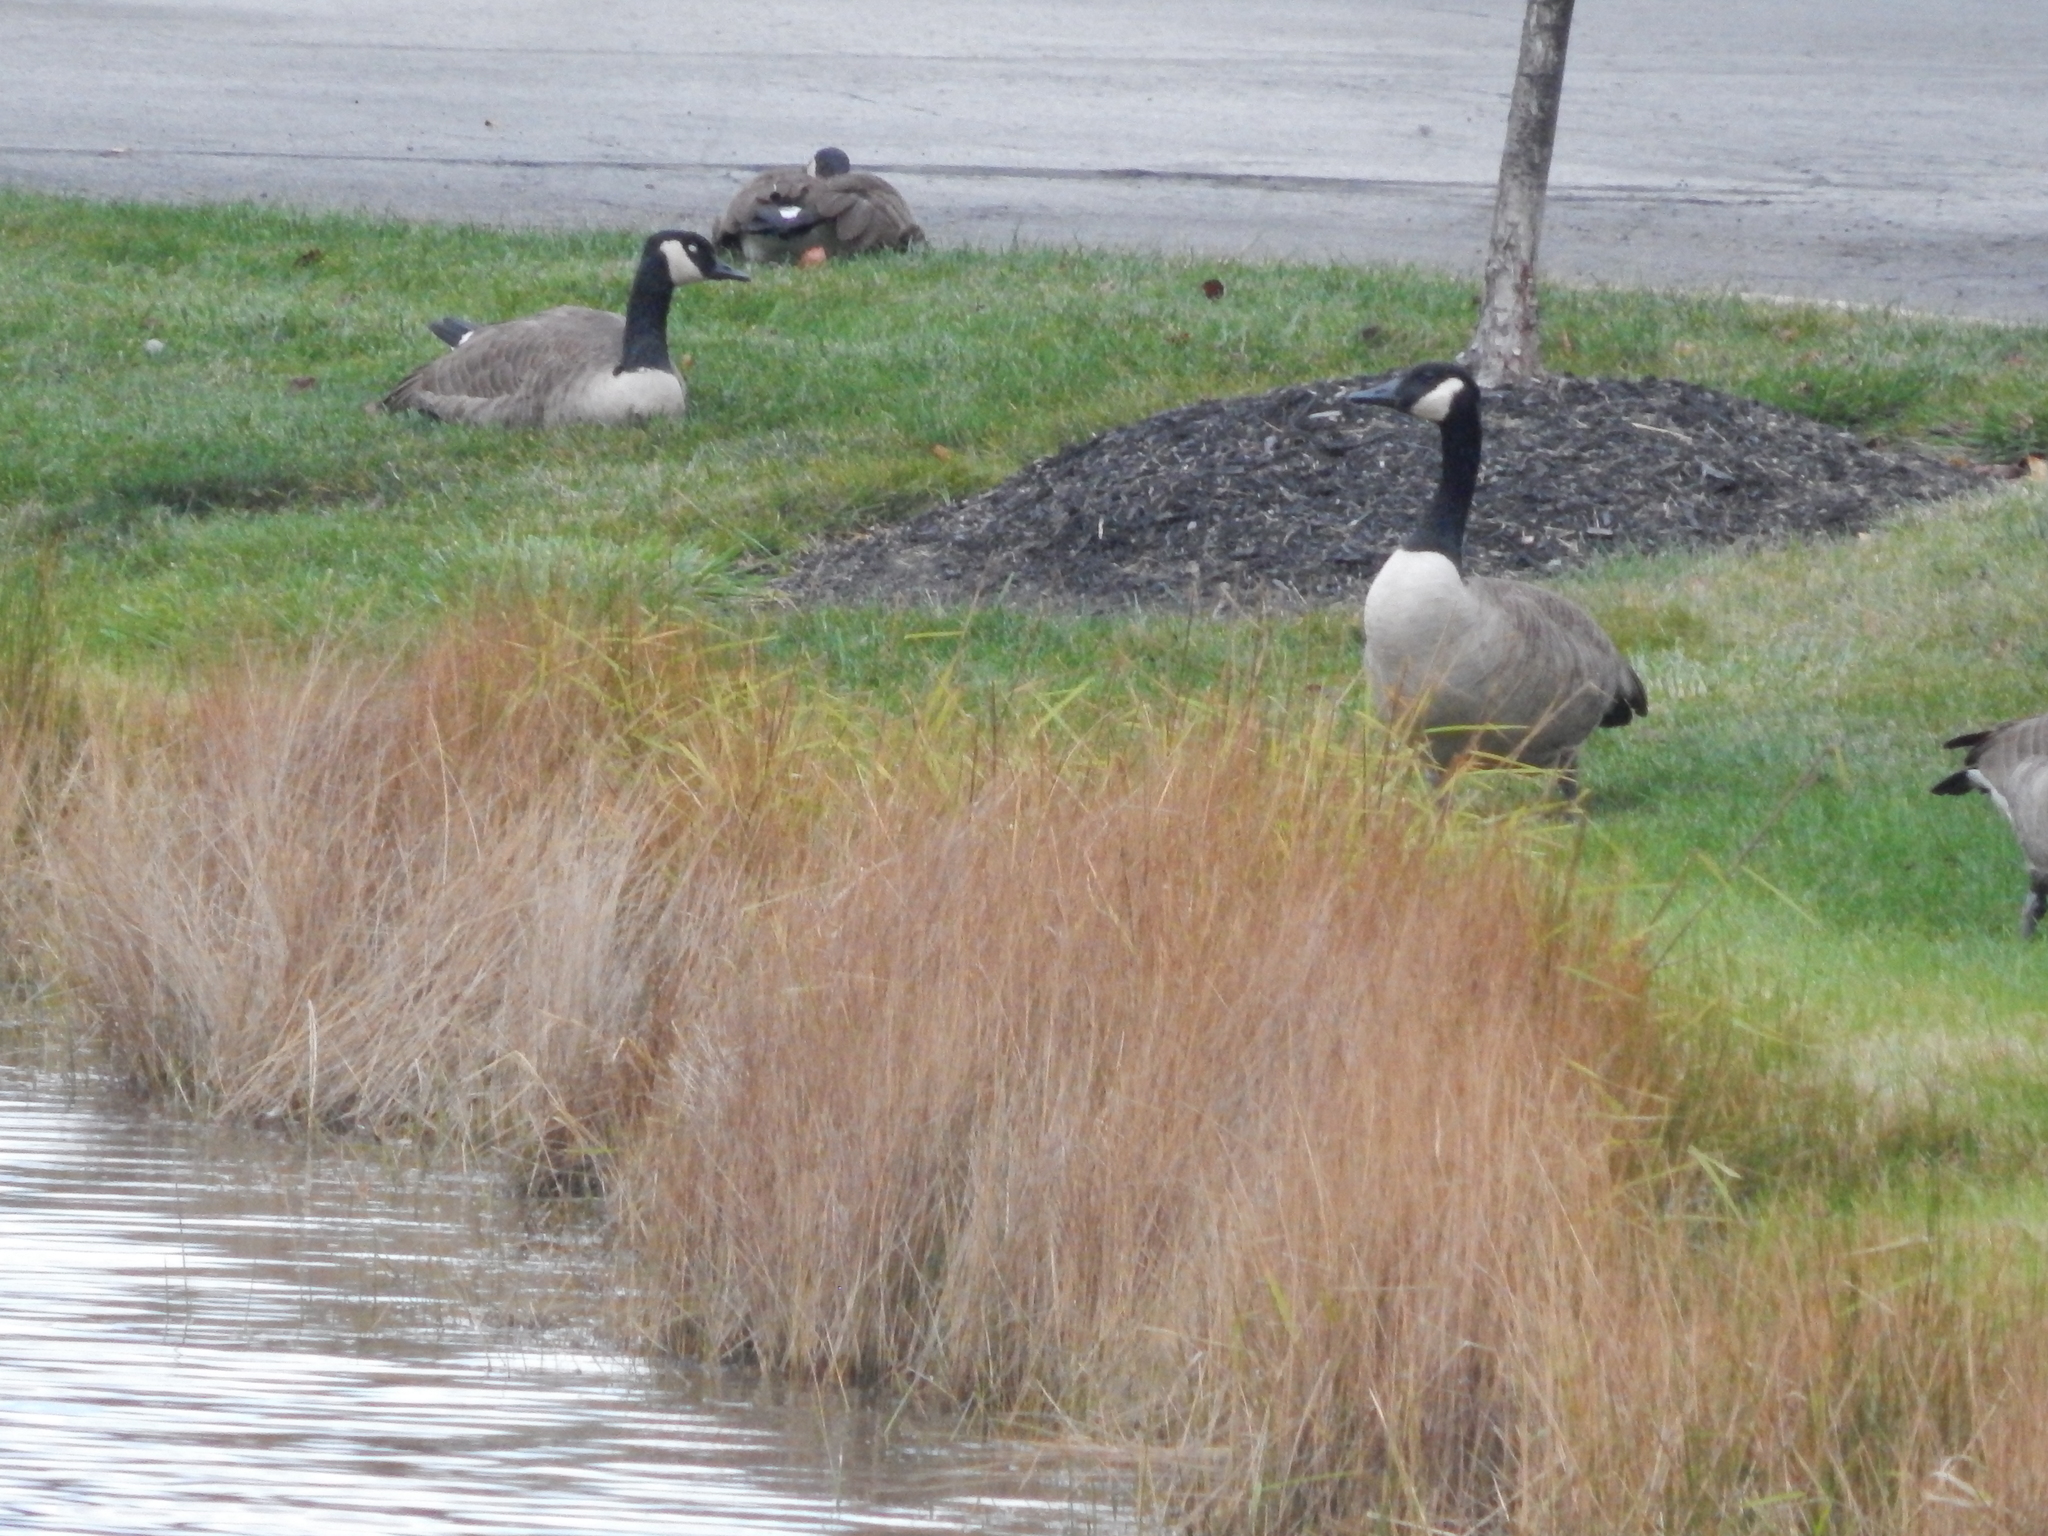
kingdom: Animalia
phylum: Chordata
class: Aves
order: Anseriformes
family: Anatidae
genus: Branta
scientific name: Branta canadensis
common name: Canada goose
